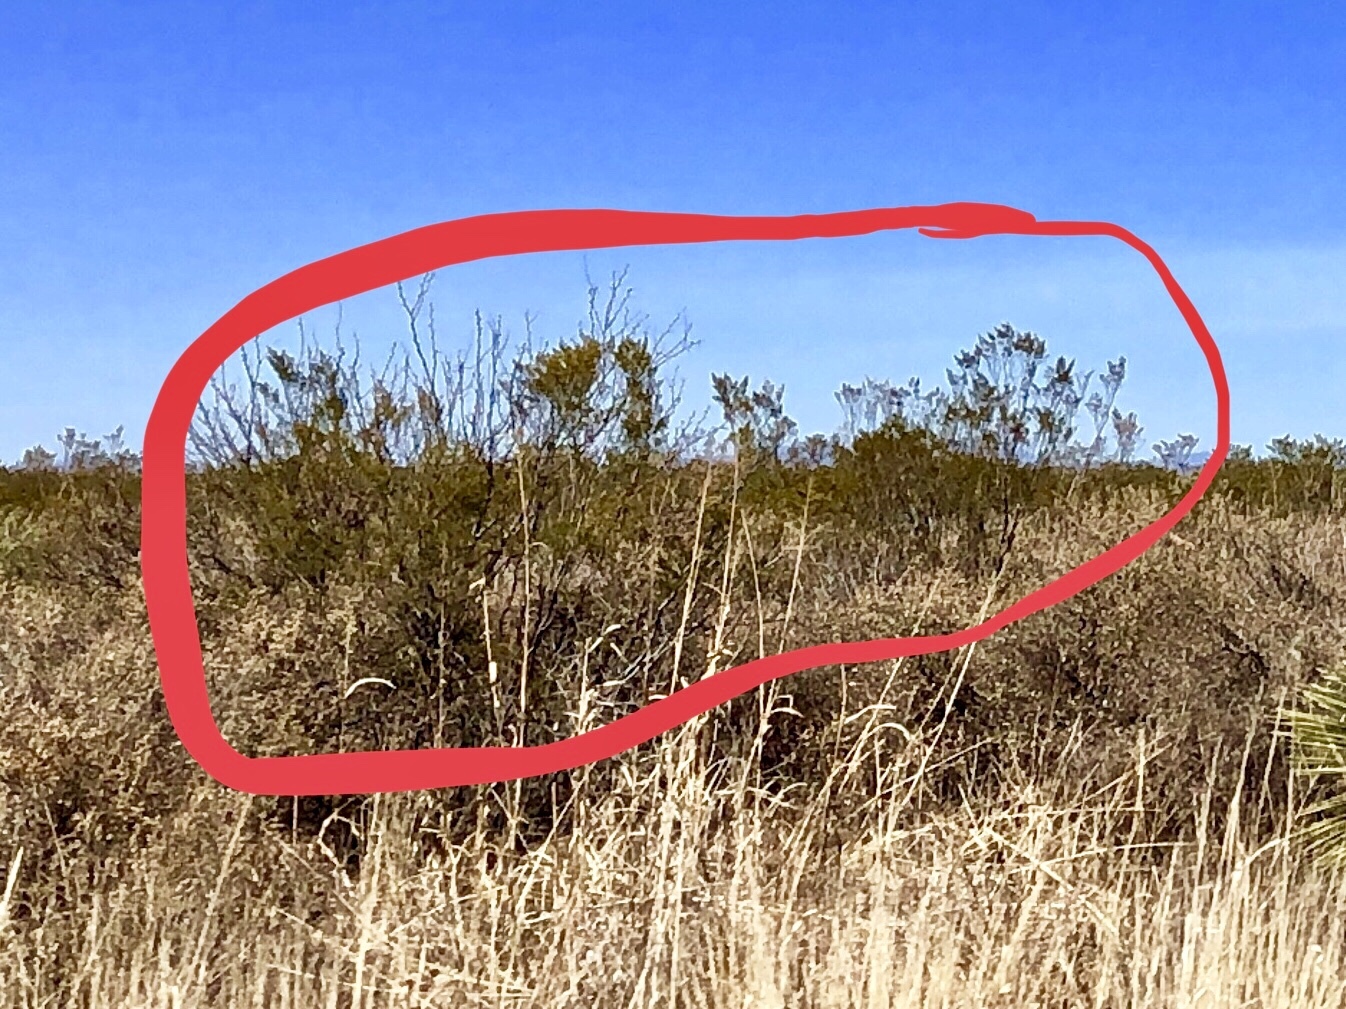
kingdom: Plantae
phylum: Tracheophyta
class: Magnoliopsida
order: Zygophyllales
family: Zygophyllaceae
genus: Larrea
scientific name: Larrea tridentata
